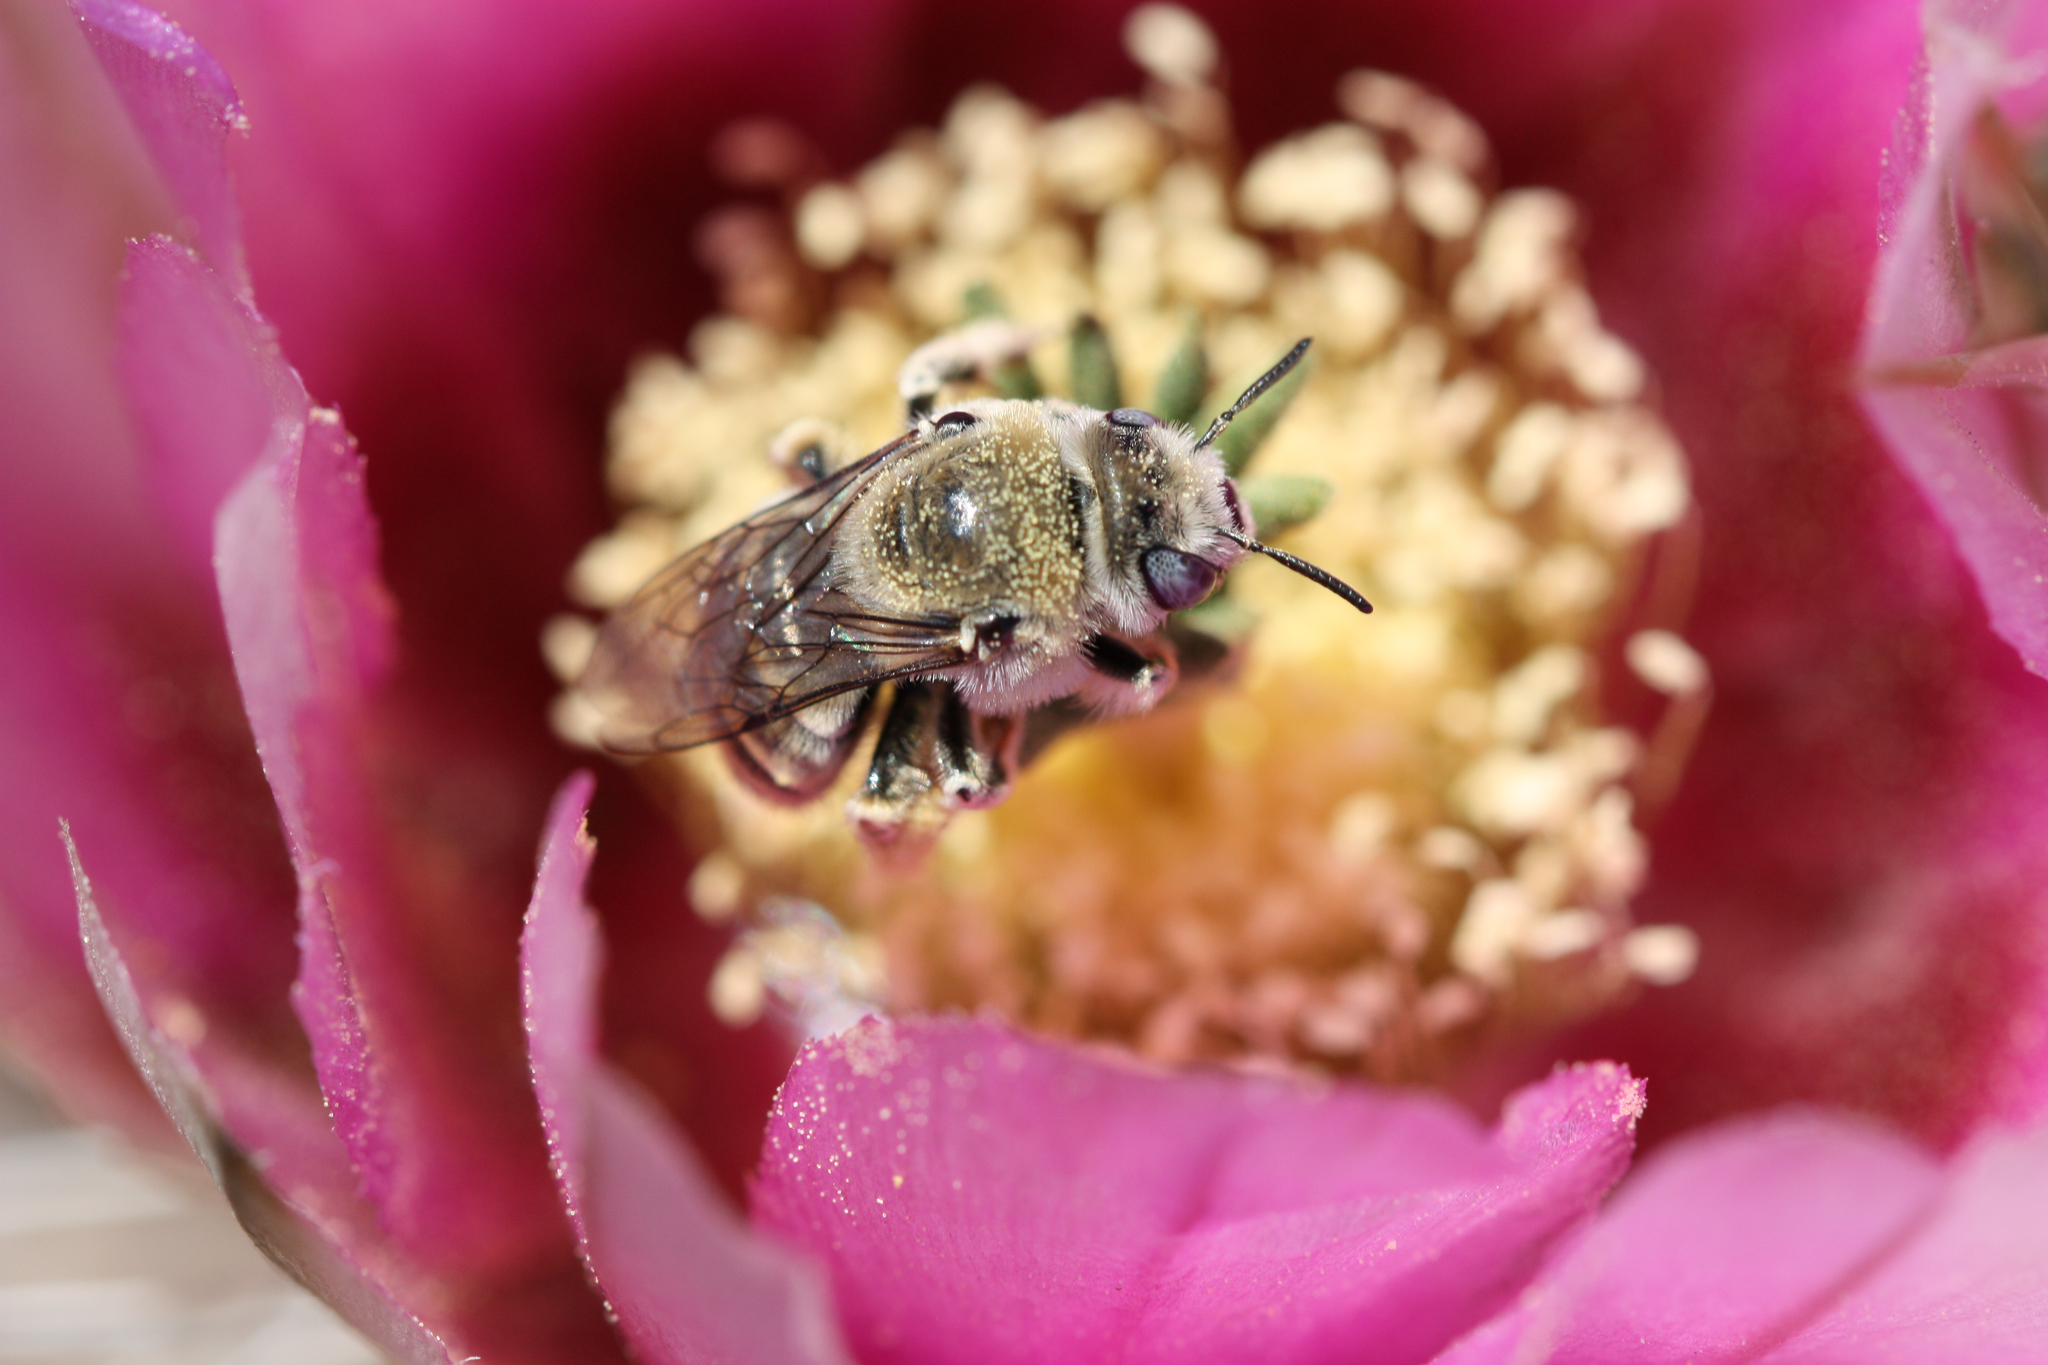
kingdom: Animalia
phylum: Arthropoda
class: Insecta
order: Hymenoptera
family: Apidae
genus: Diadasia
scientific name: Diadasia
